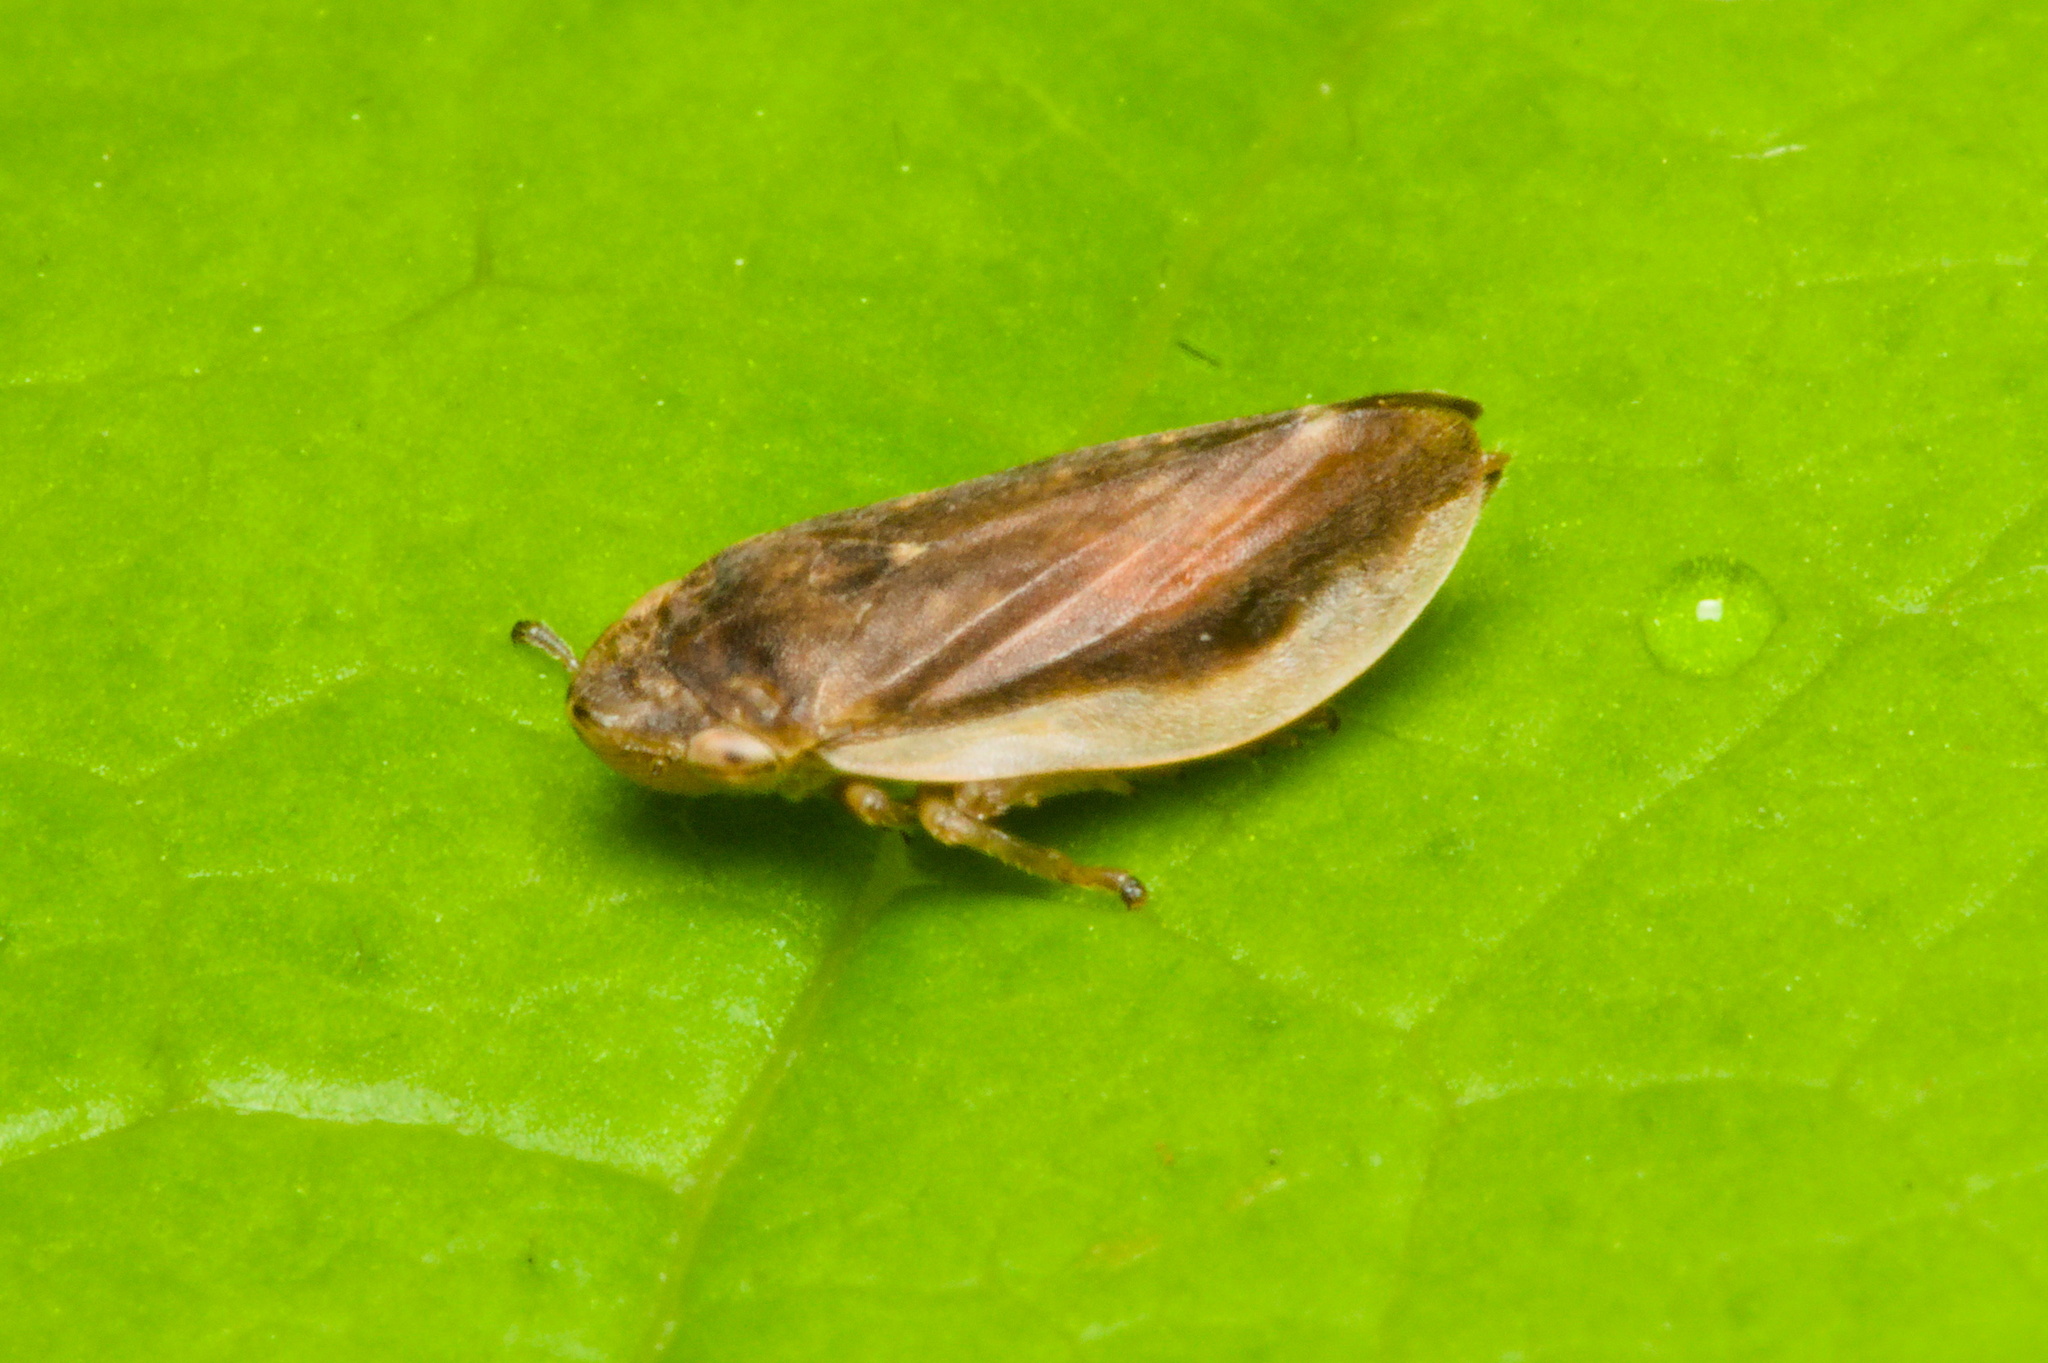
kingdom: Animalia
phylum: Arthropoda
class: Insecta
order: Hemiptera
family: Aphrophoridae
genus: Philaenus
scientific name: Philaenus spumarius
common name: Meadow spittlebug
